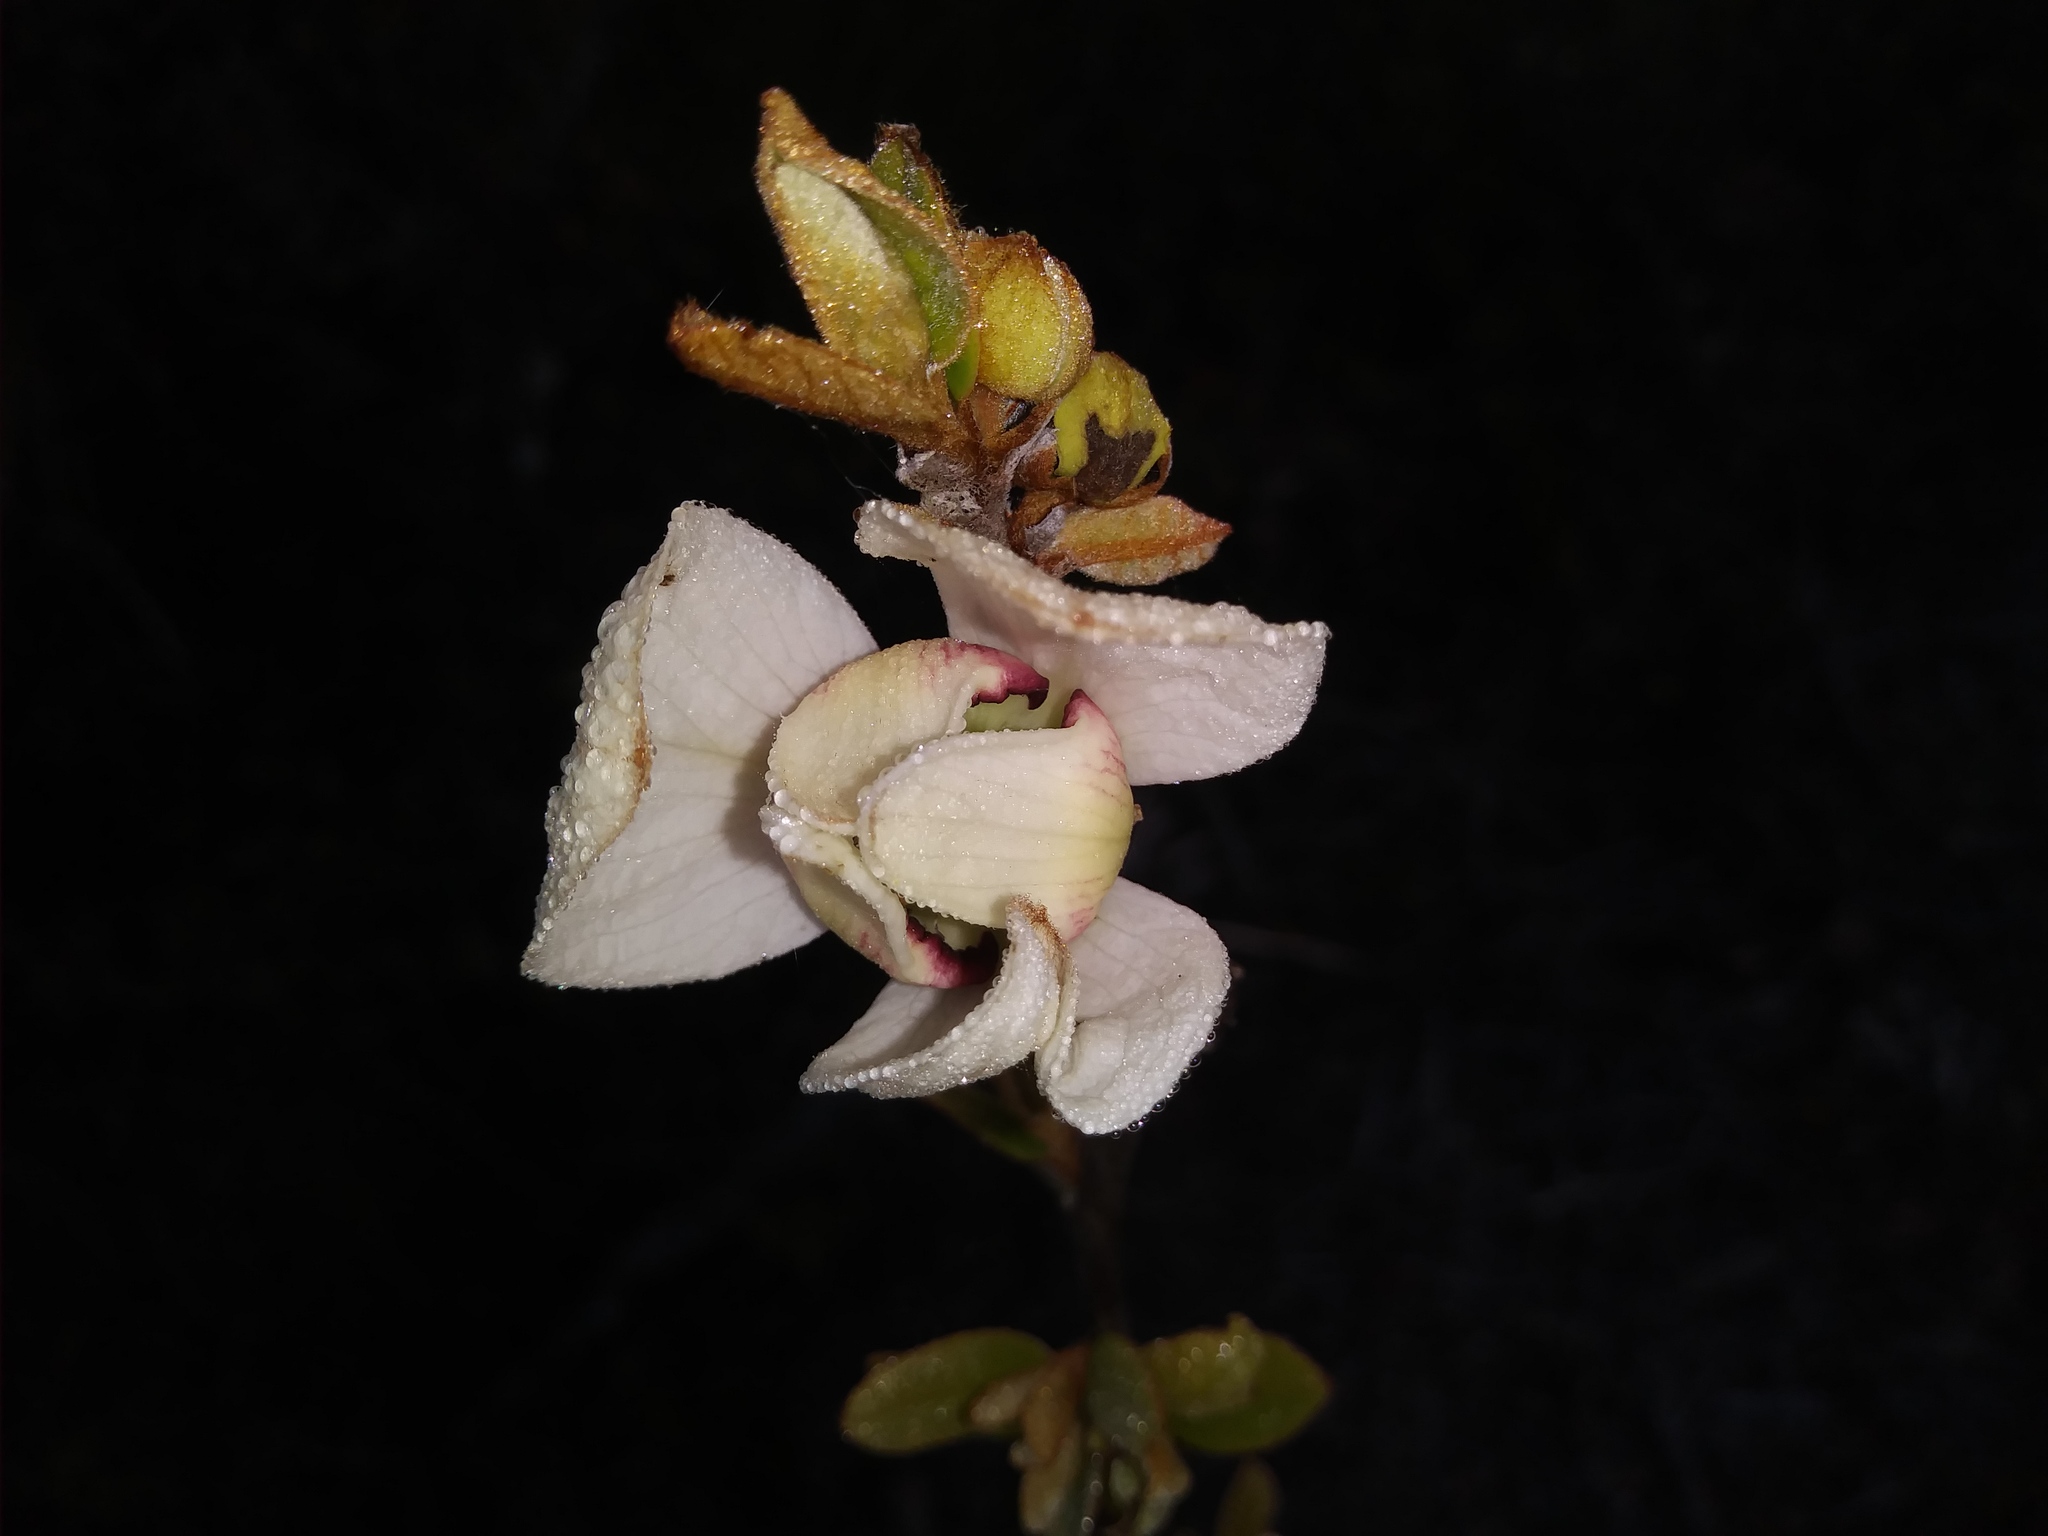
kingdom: Plantae
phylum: Tracheophyta
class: Magnoliopsida
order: Magnoliales
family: Annonaceae
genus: Asimina
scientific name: Asimina reticulata
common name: Flag pawpaw
